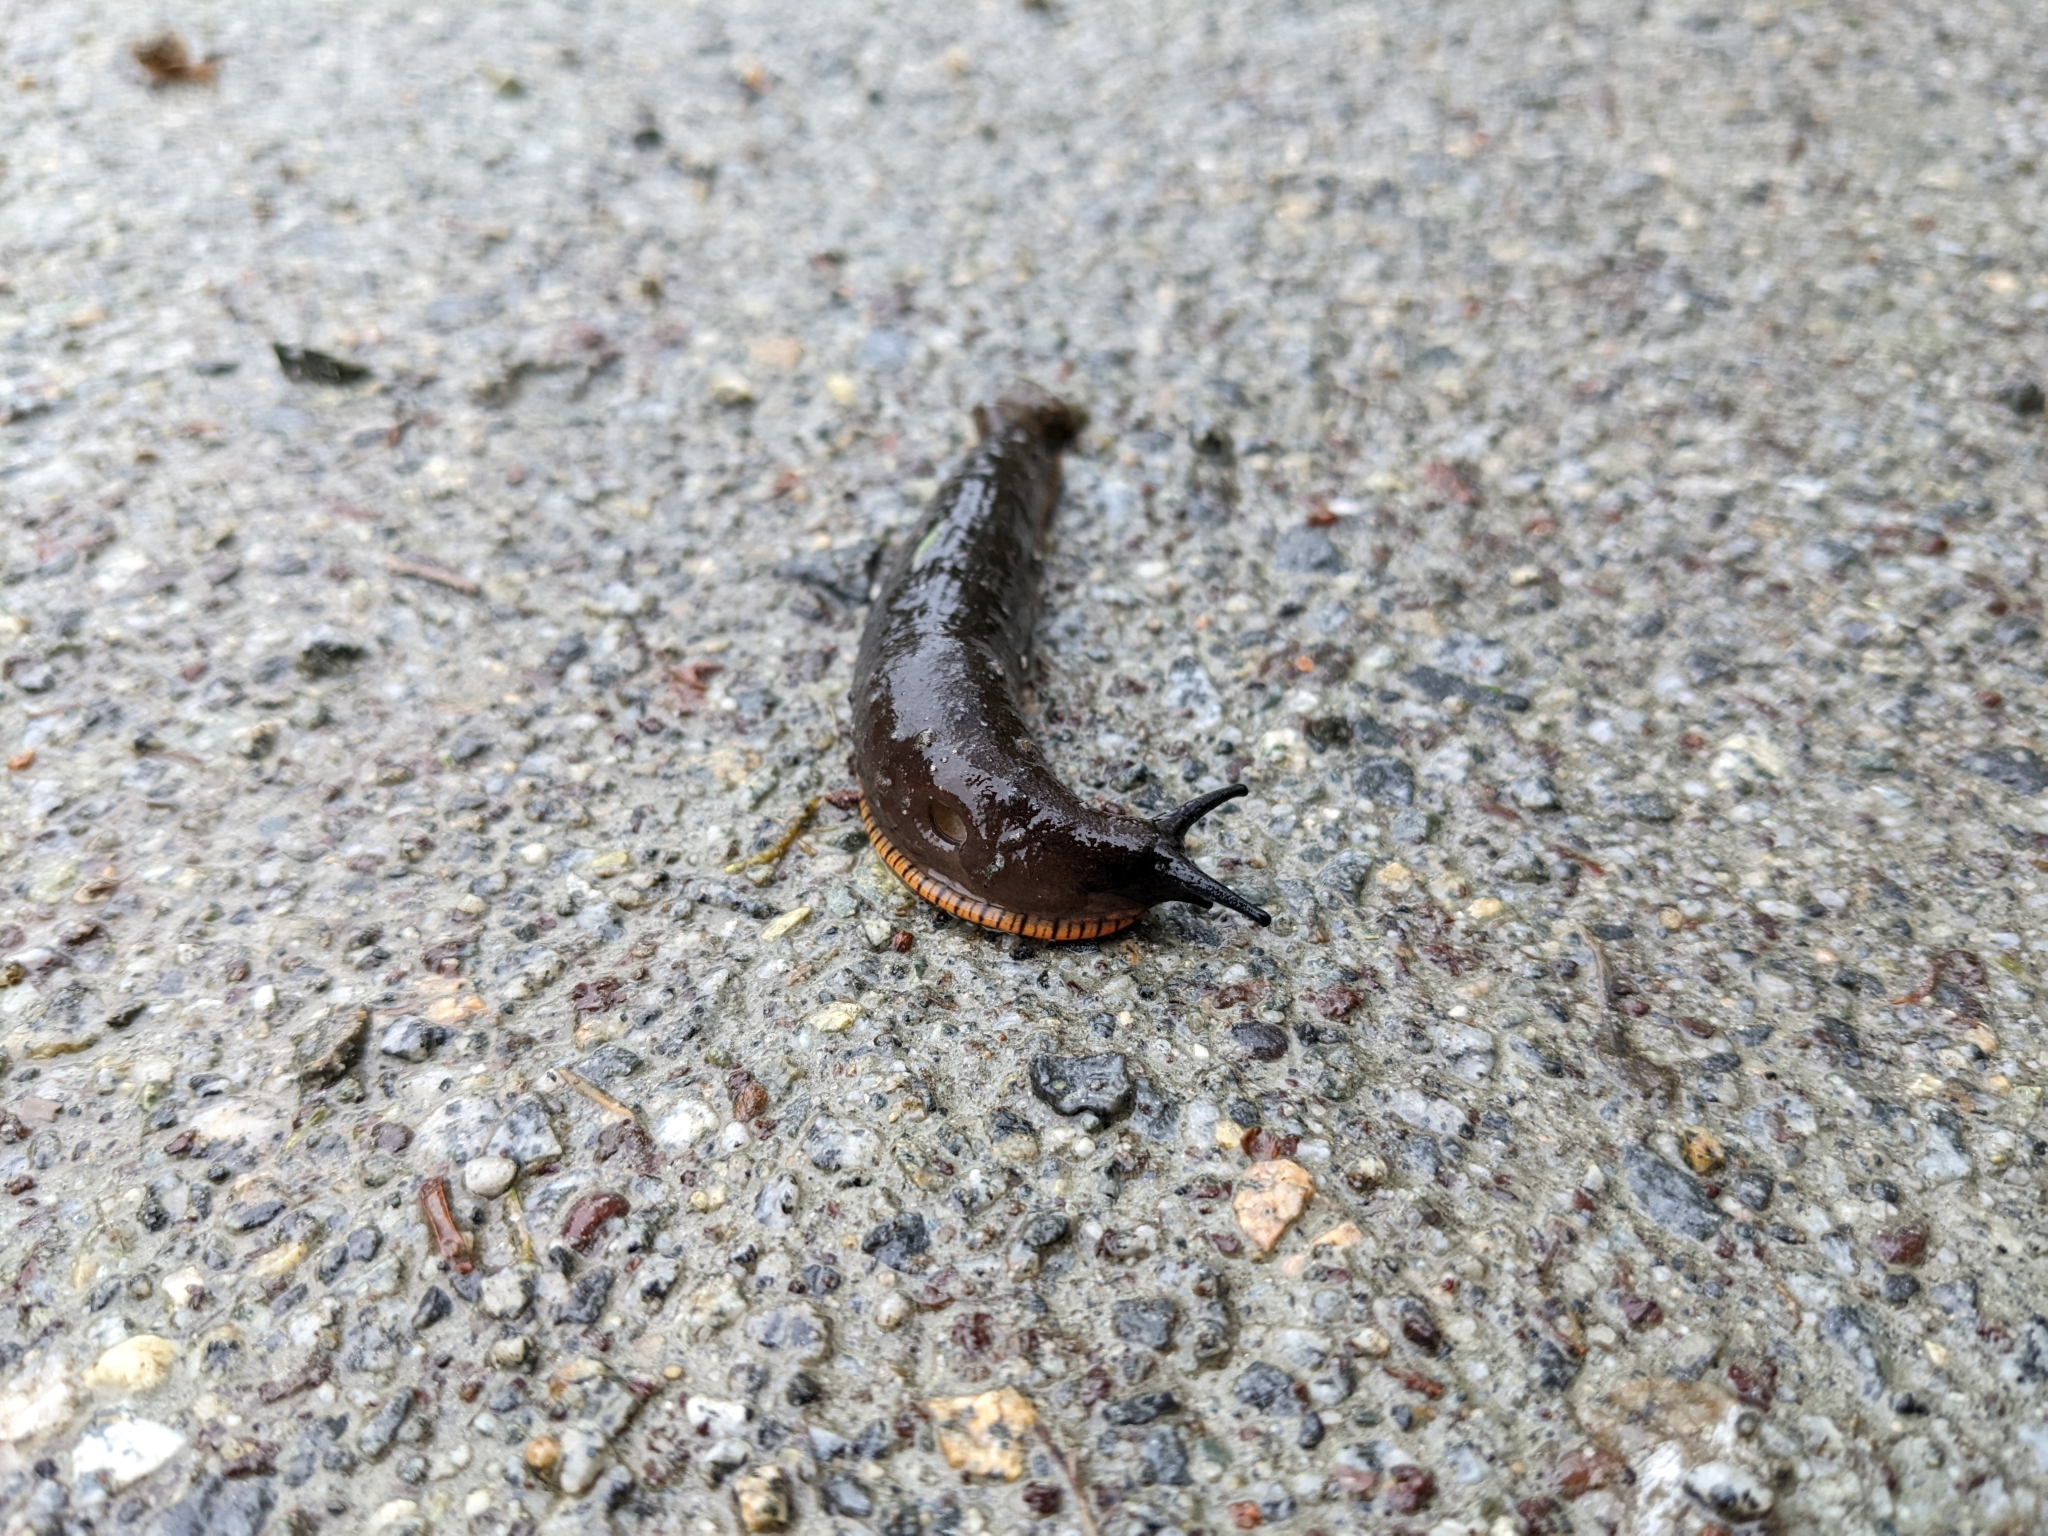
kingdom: Animalia
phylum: Mollusca
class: Gastropoda
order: Stylommatophora
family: Arionidae
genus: Arion
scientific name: Arion
